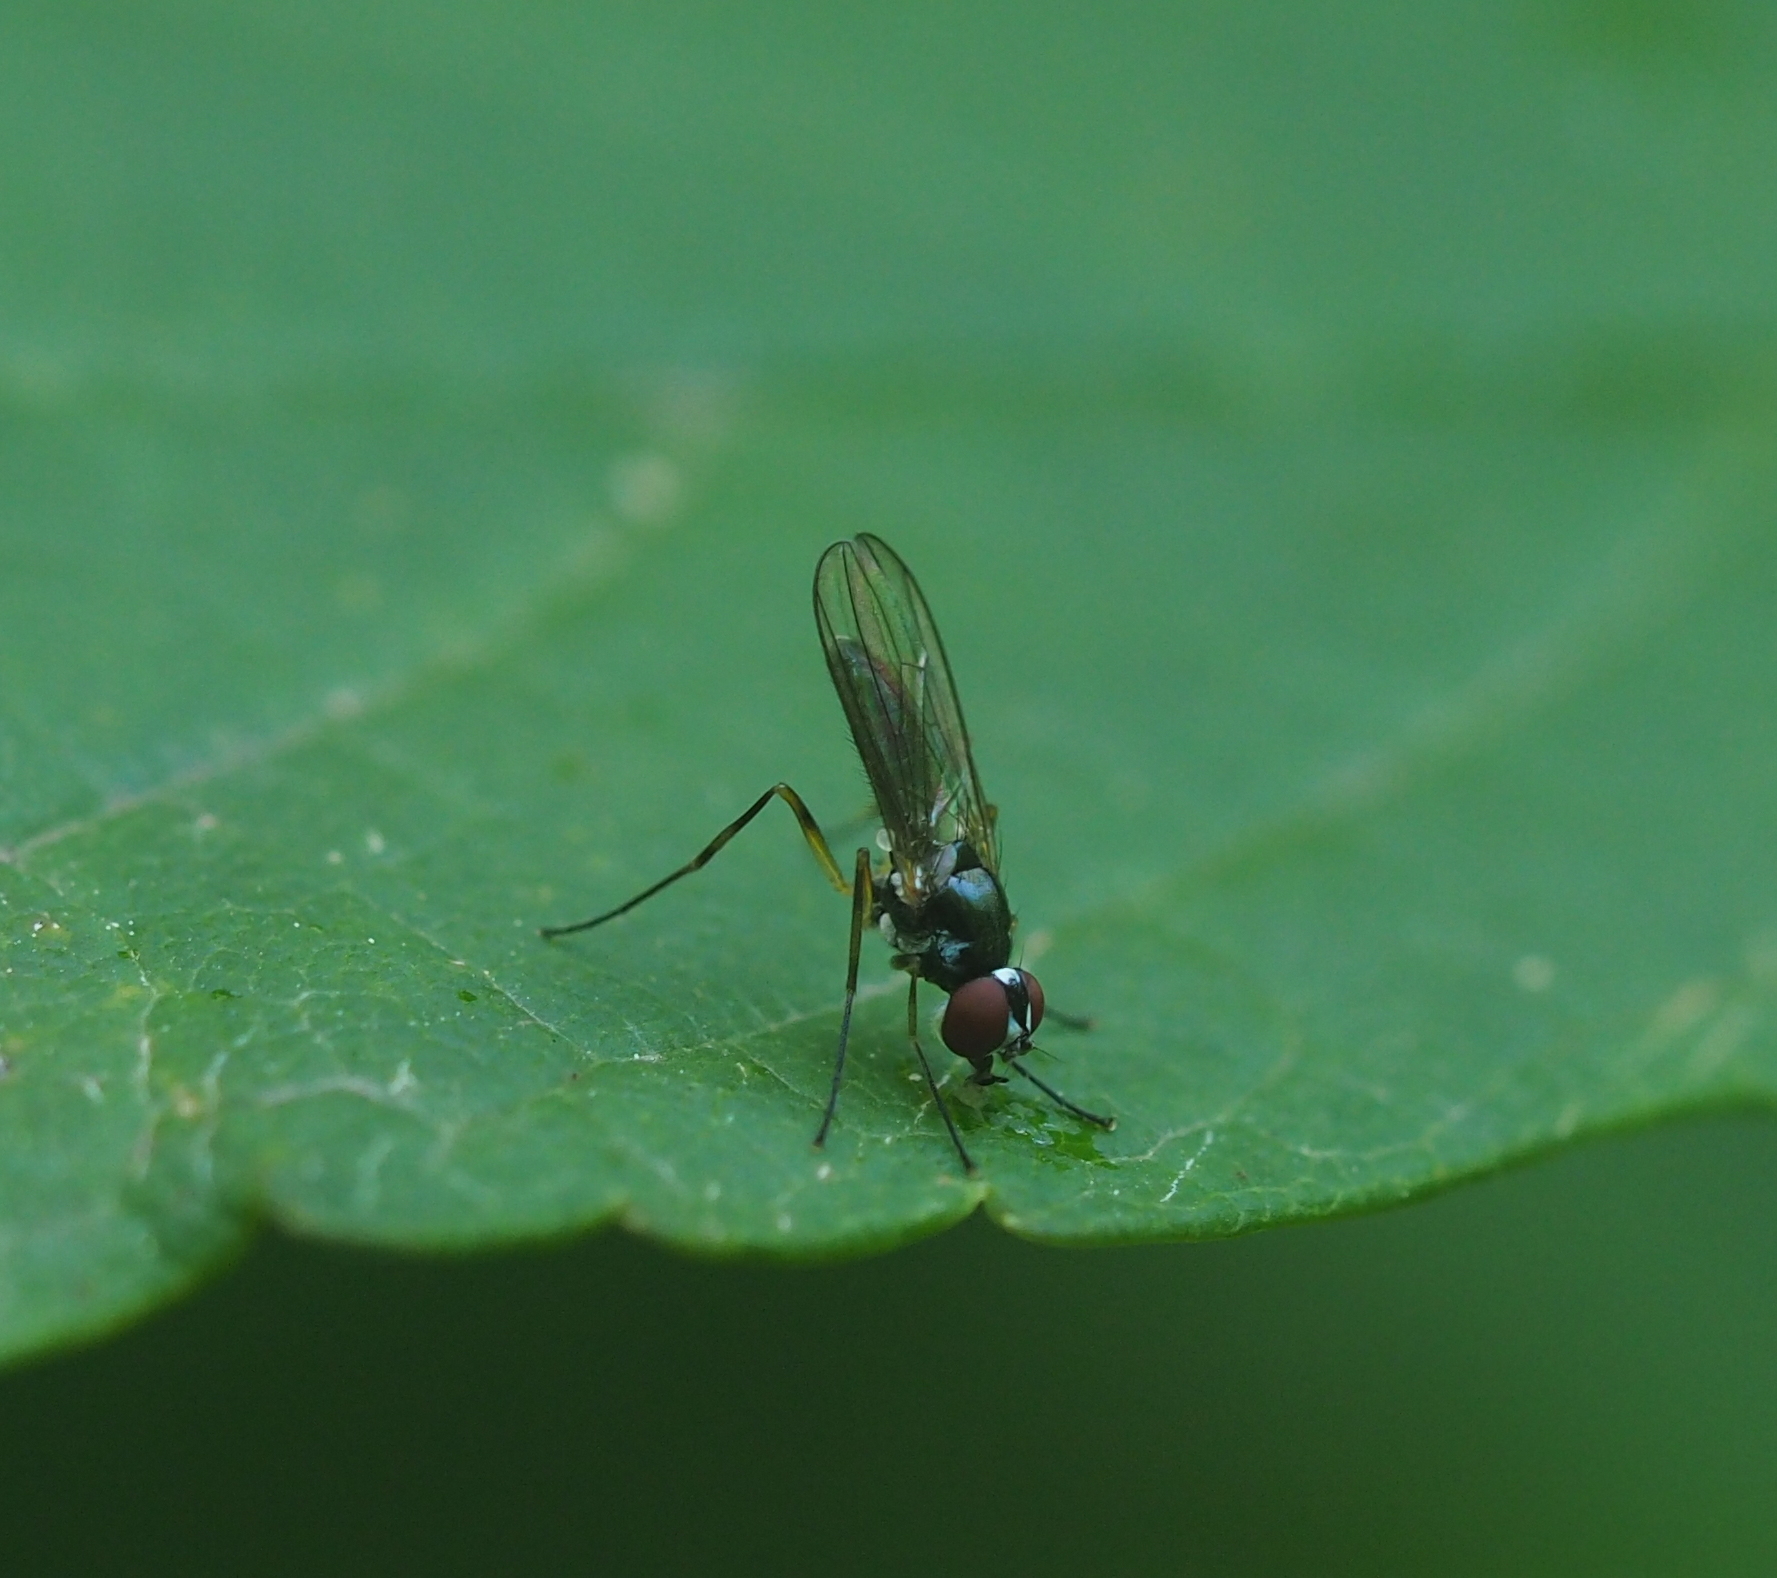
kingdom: Animalia
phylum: Arthropoda
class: Insecta
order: Diptera
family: Tanypezidae
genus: Tanypeza
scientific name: Tanypeza longimanus
